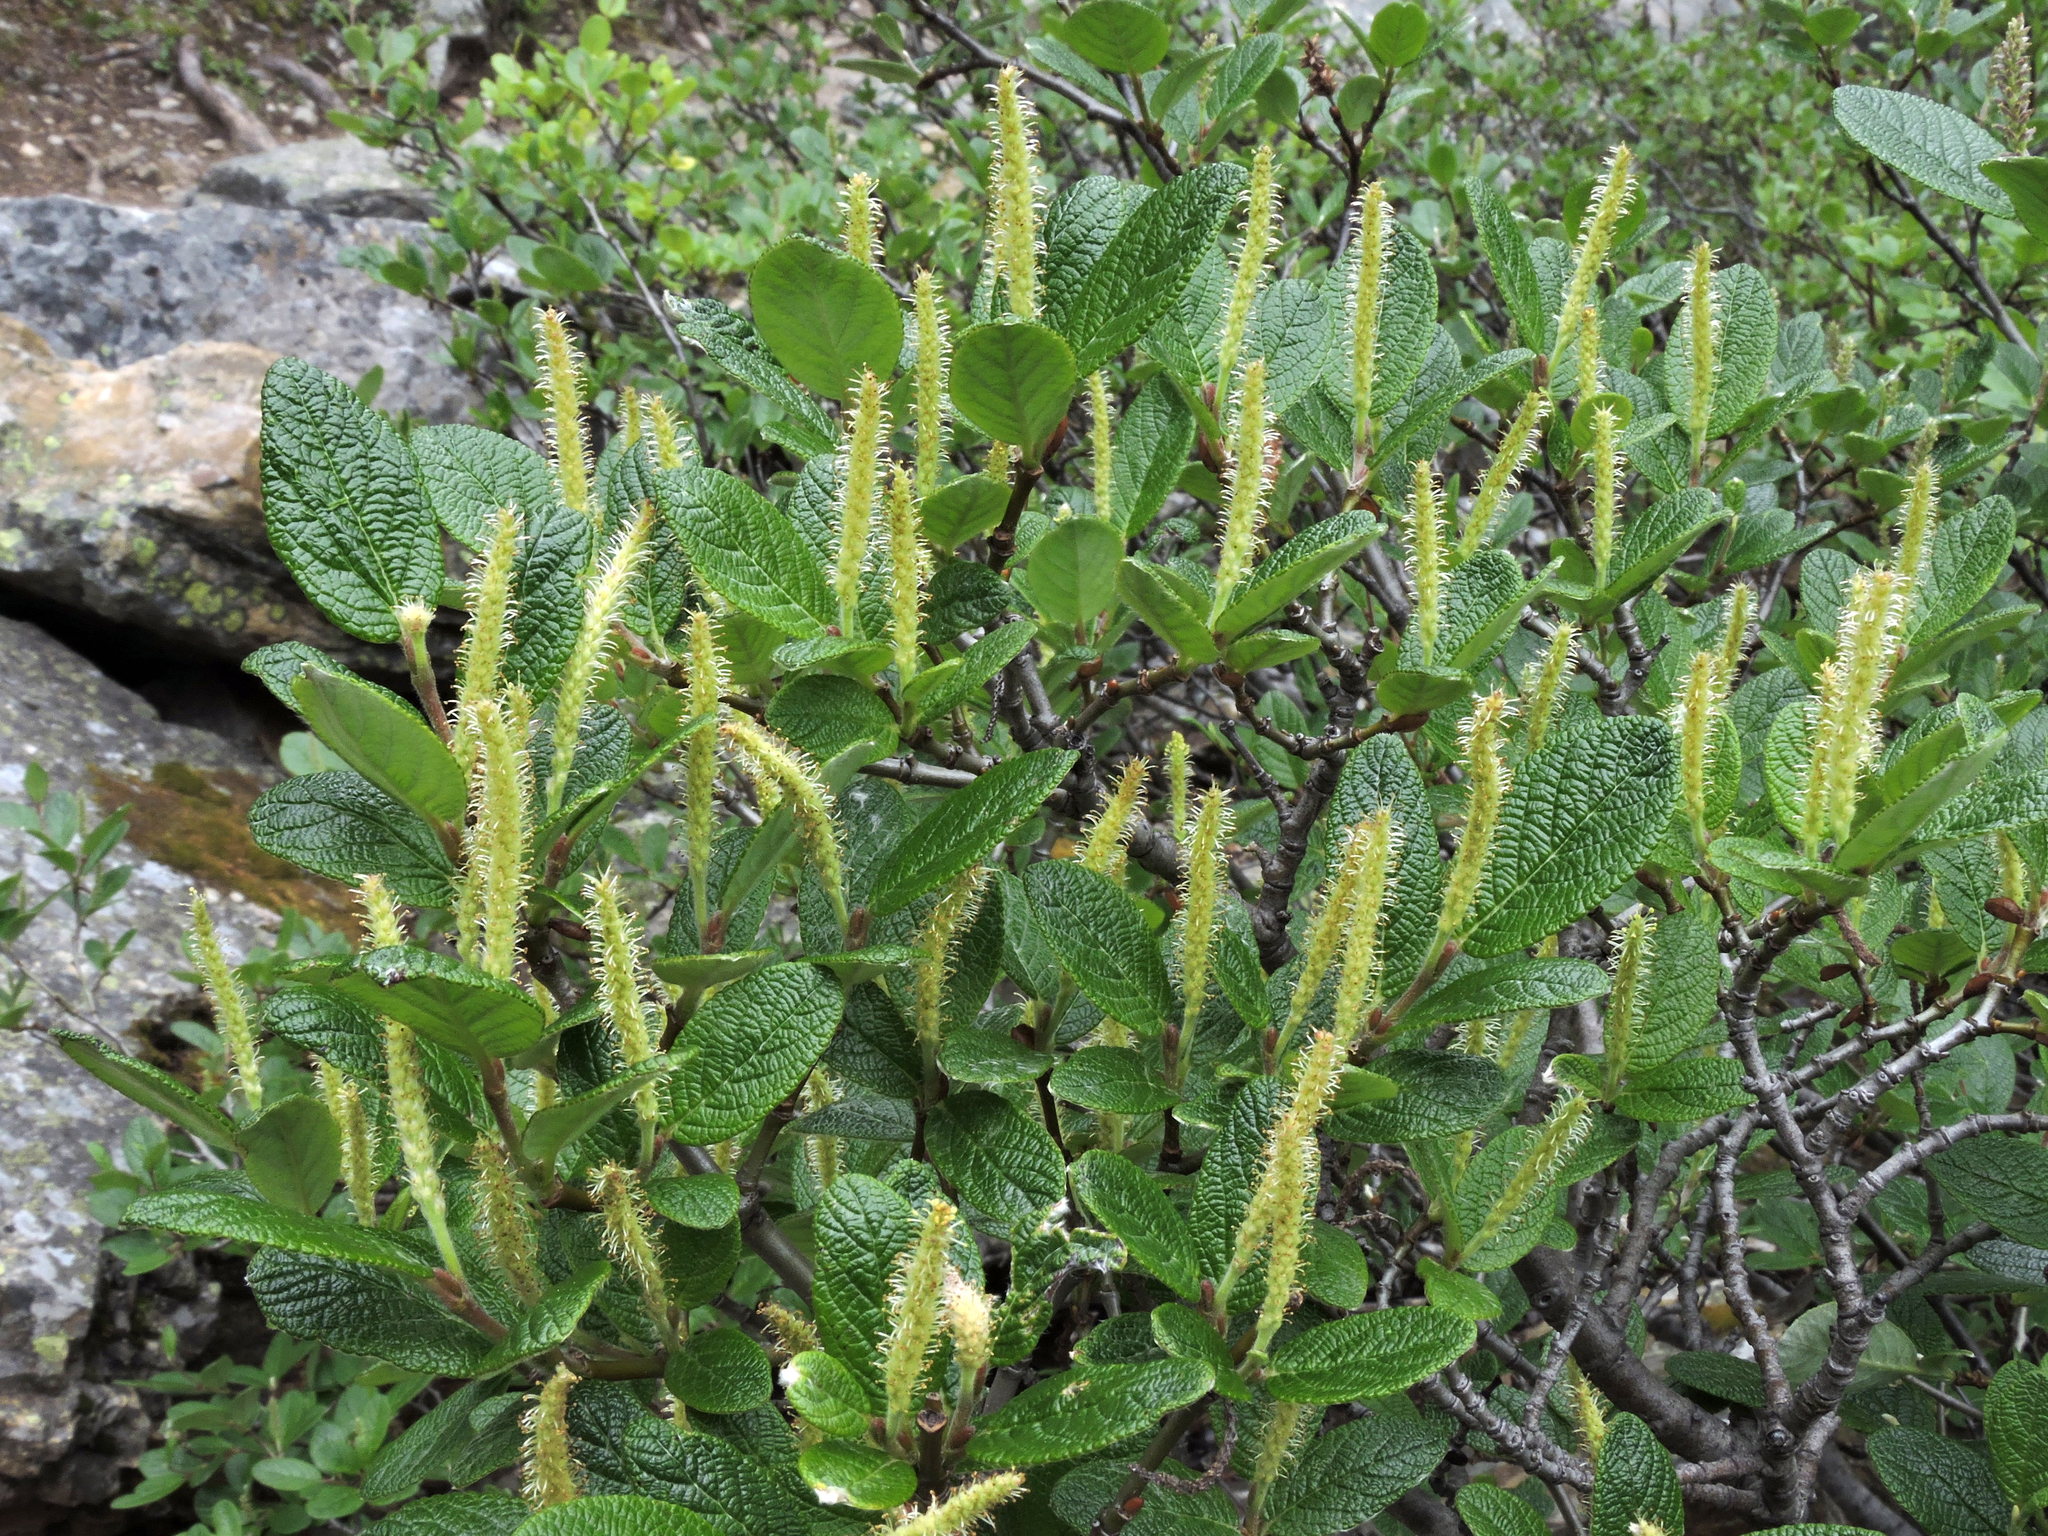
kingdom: Plantae
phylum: Tracheophyta
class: Magnoliopsida
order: Malpighiales
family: Salicaceae
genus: Salix
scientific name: Salix vestita
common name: Hairy willow
